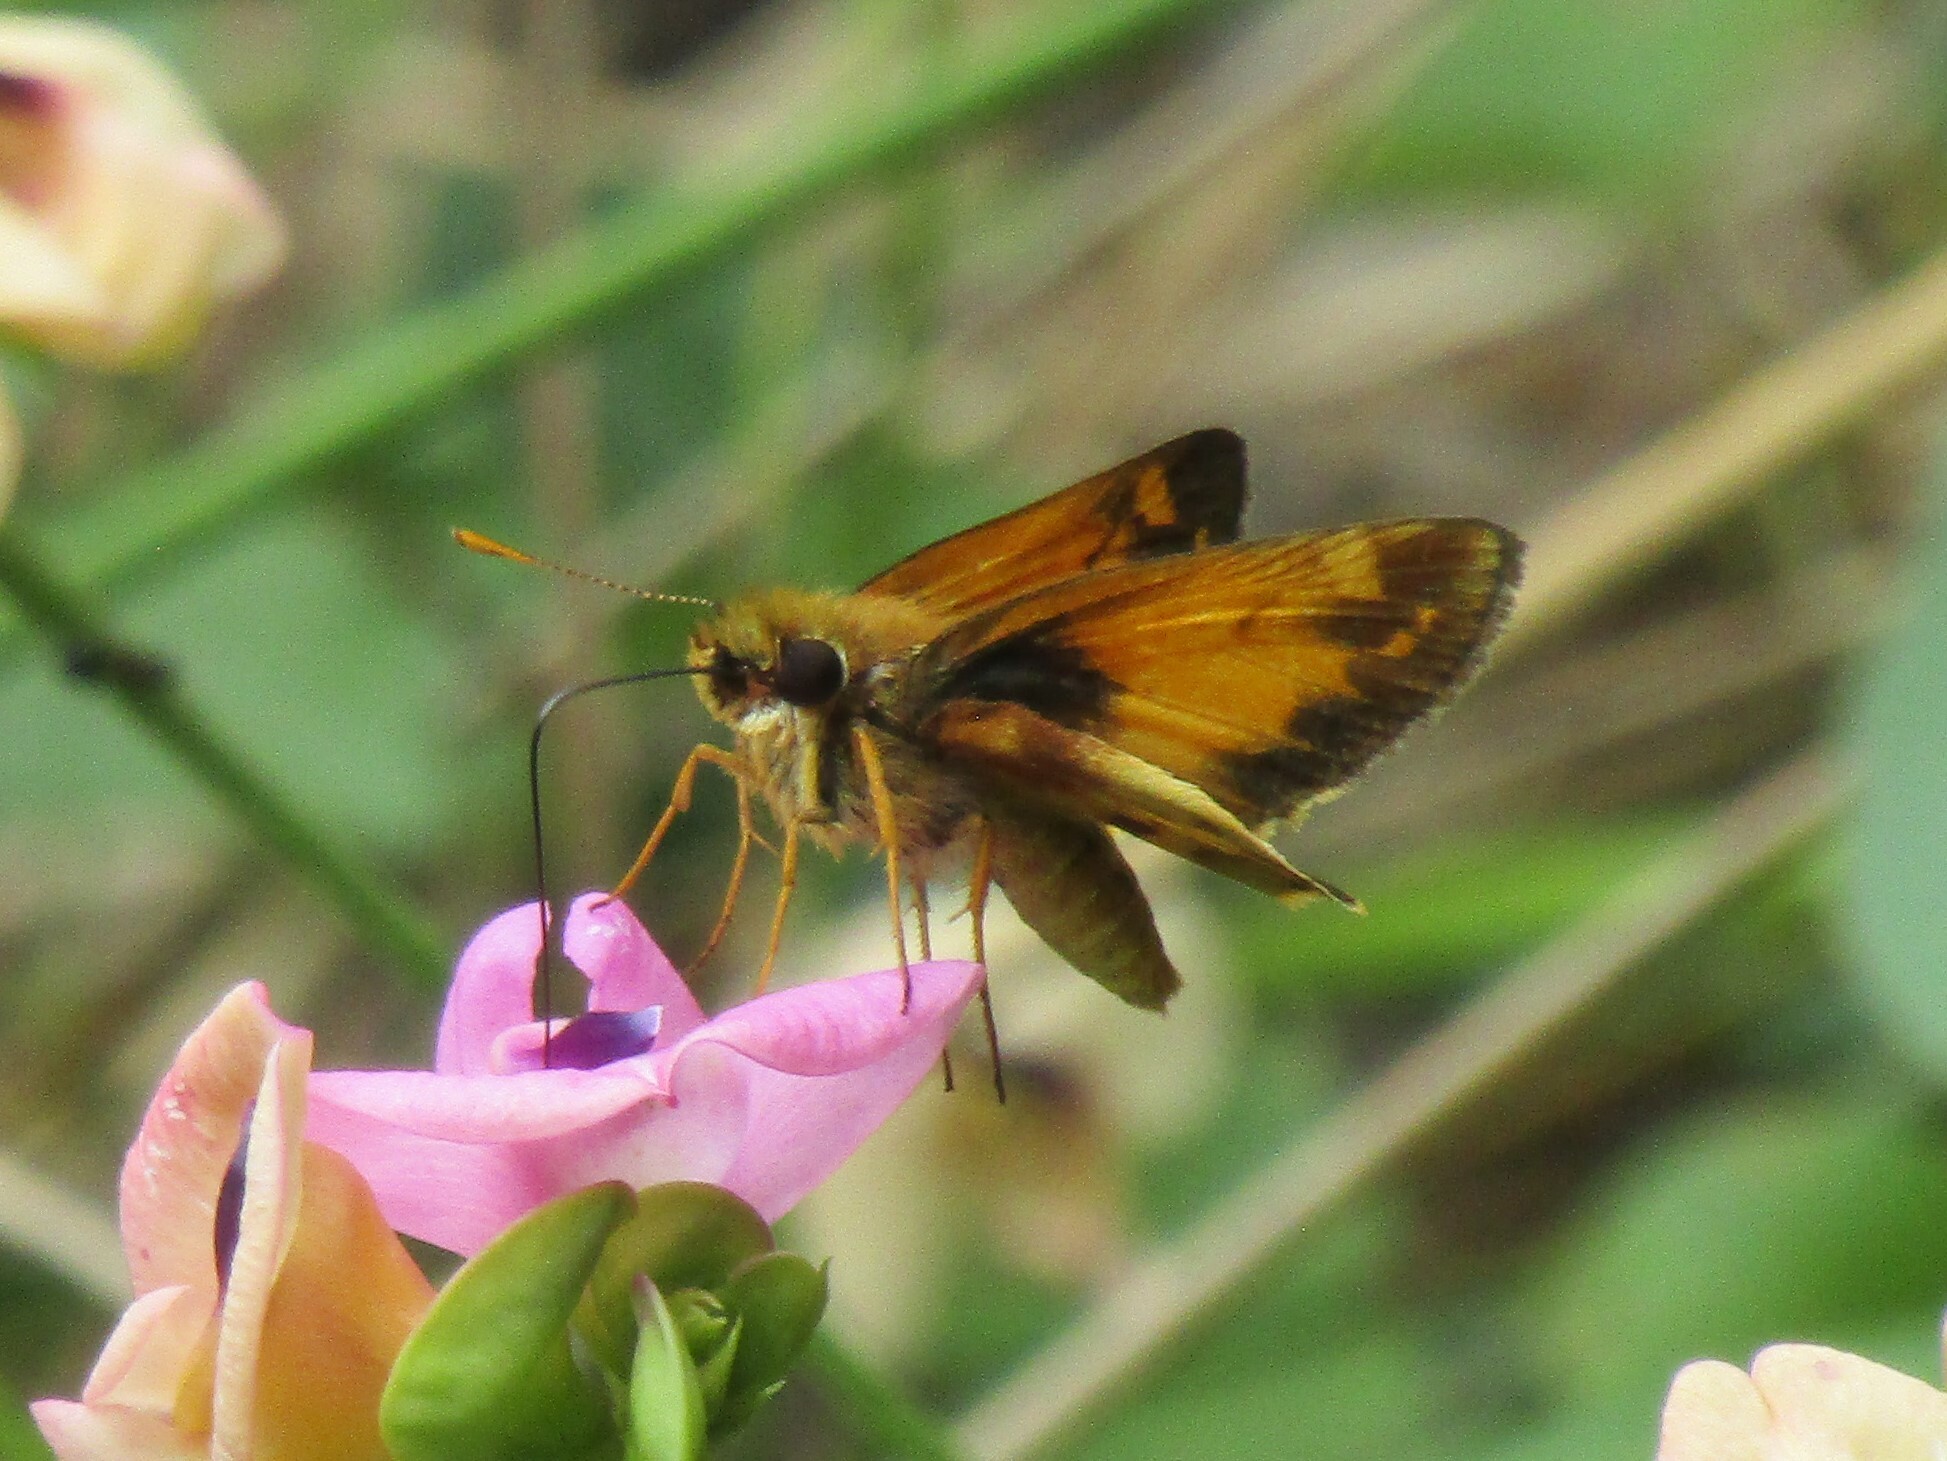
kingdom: Animalia
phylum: Arthropoda
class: Insecta
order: Lepidoptera
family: Hesperiidae
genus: Lon
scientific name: Lon zabulon
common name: Zabulon skipper
